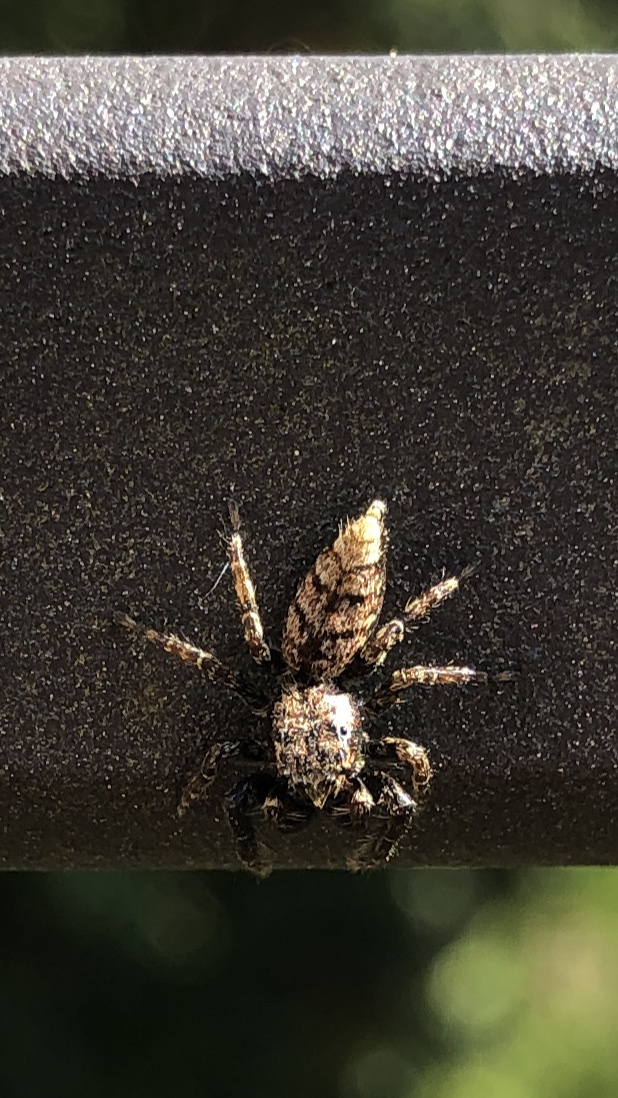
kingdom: Animalia
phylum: Arthropoda
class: Arachnida
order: Araneae
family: Salticidae
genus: Marpissa
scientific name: Marpissa muscosa
